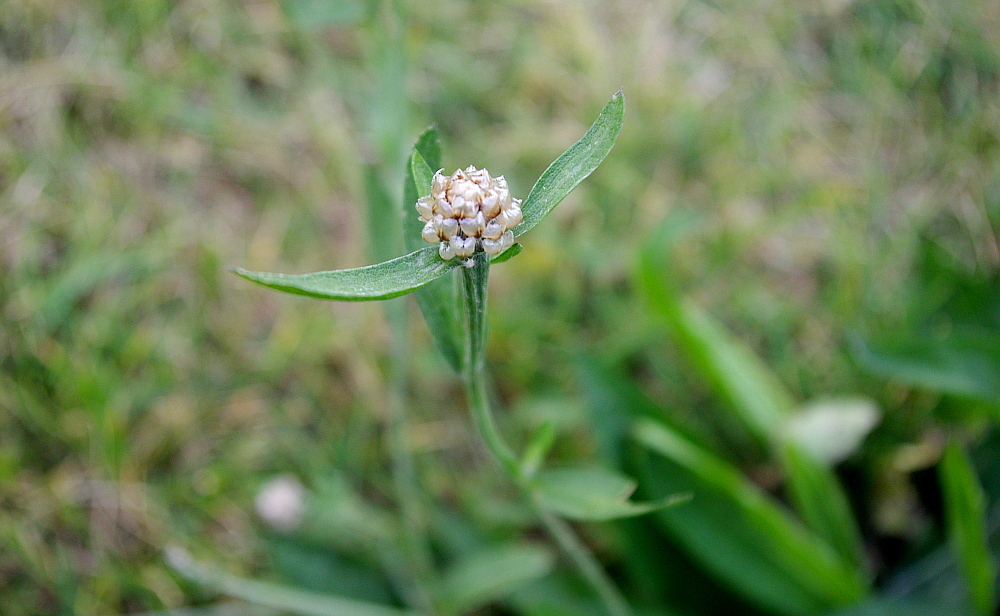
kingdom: Plantae
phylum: Tracheophyta
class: Magnoliopsida
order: Asterales
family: Asteraceae
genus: Centaurea
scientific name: Centaurea jacea
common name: Brown knapweed
